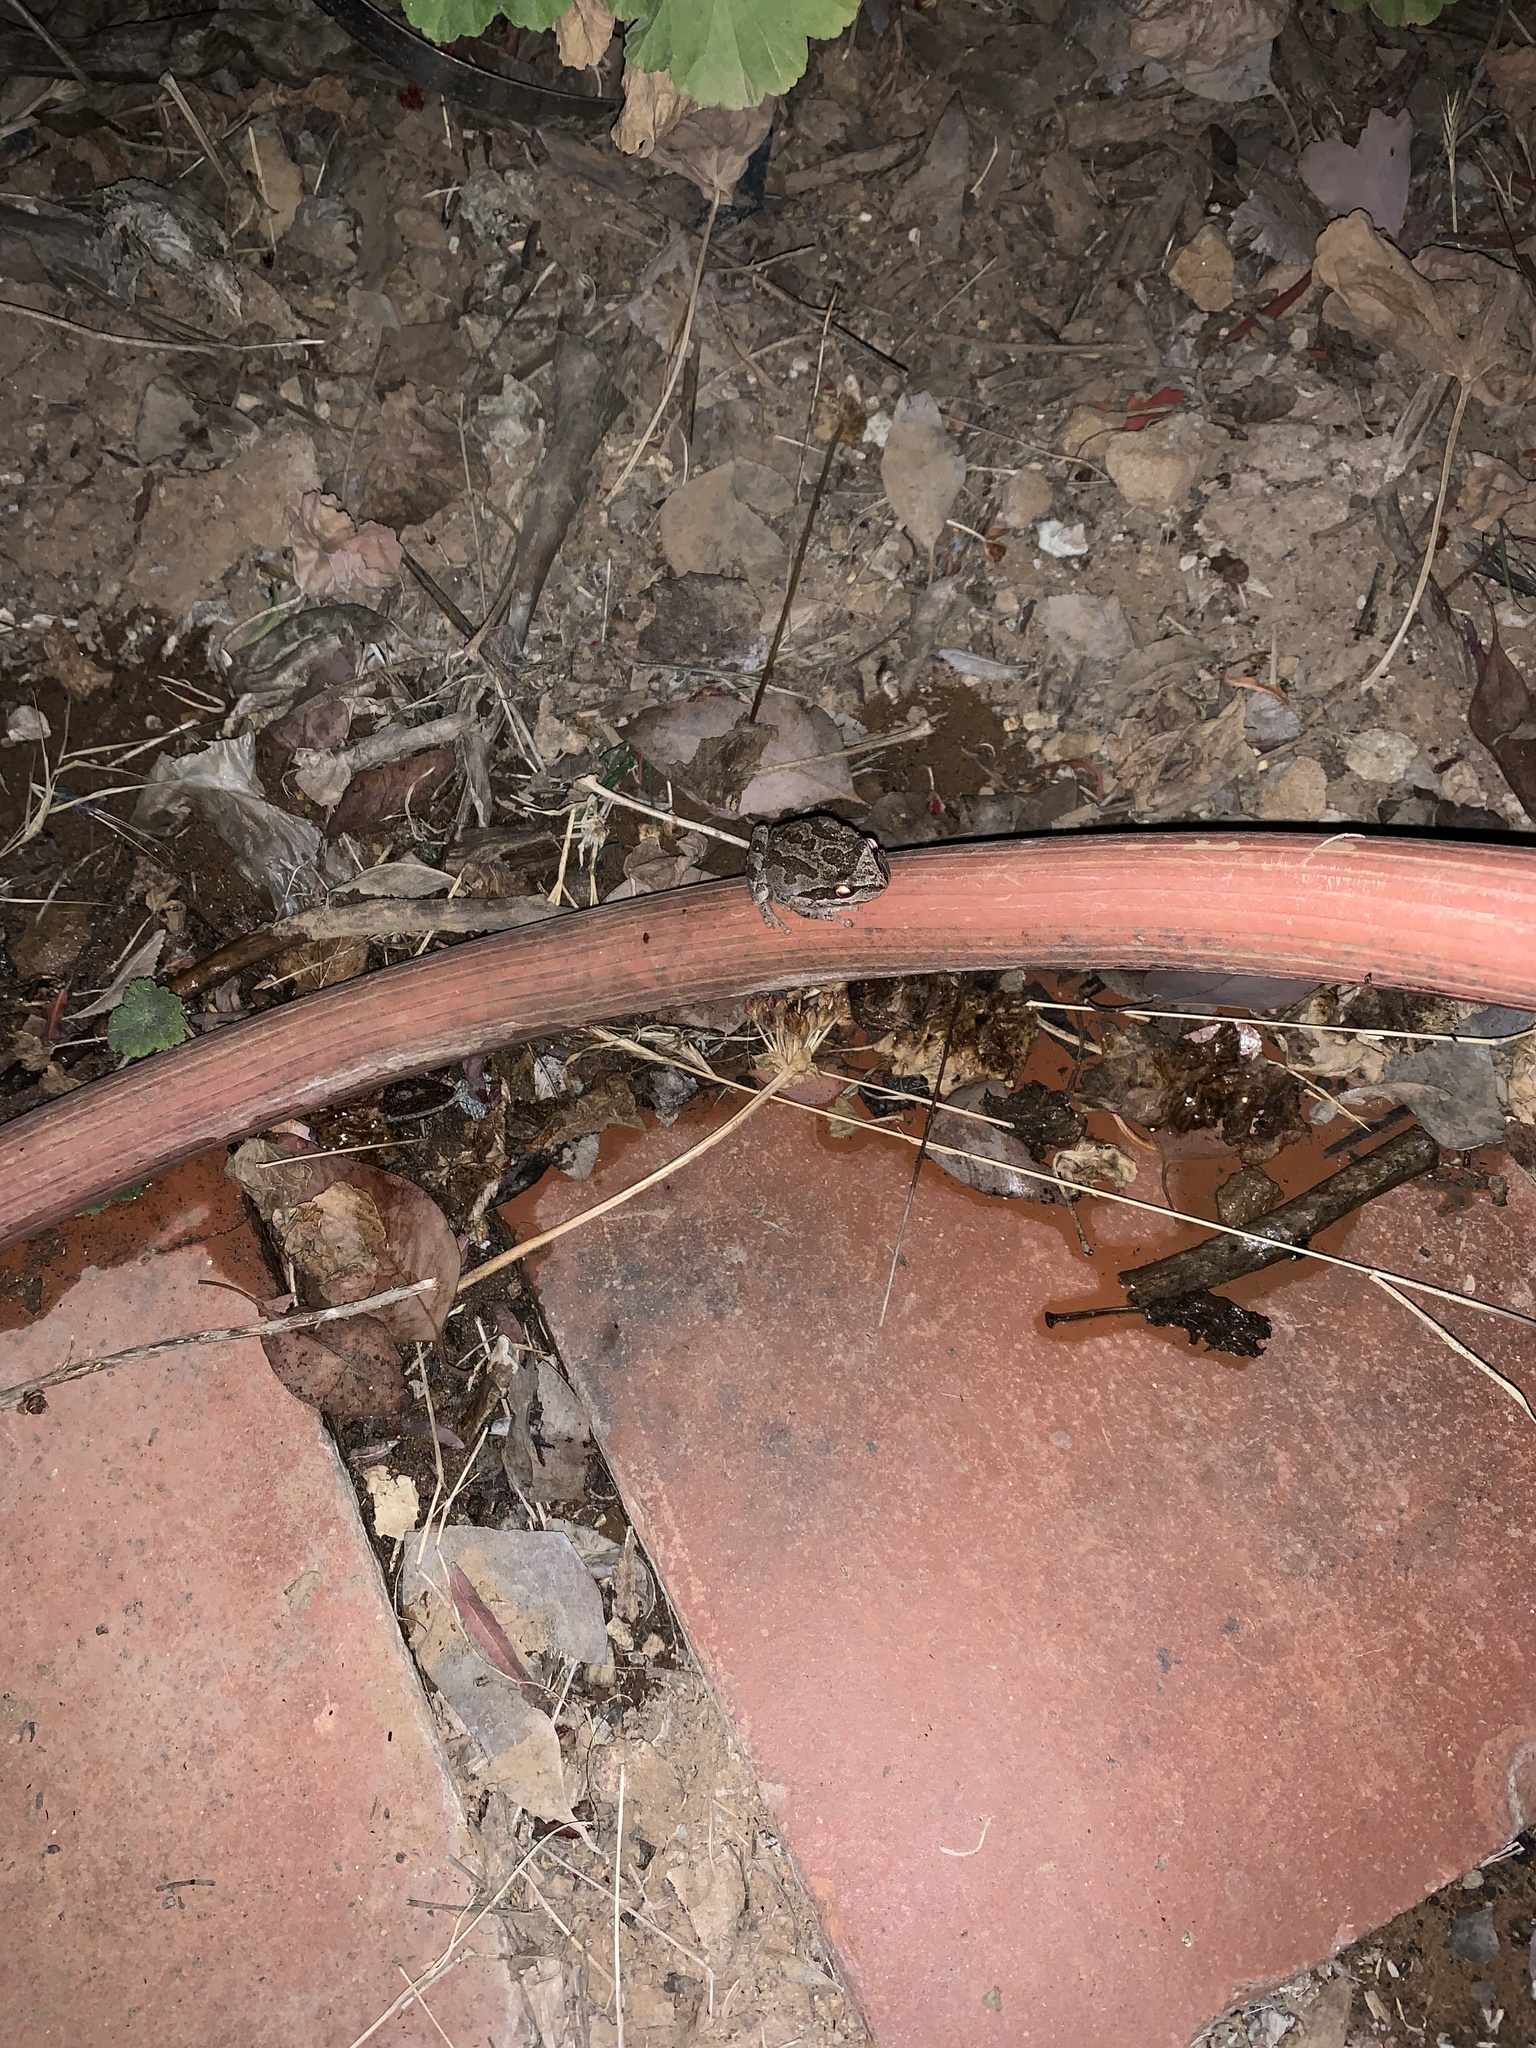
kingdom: Animalia
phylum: Chordata
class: Amphibia
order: Anura
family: Hylidae
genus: Pseudacris
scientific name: Pseudacris regilla
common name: Pacific chorus frog
